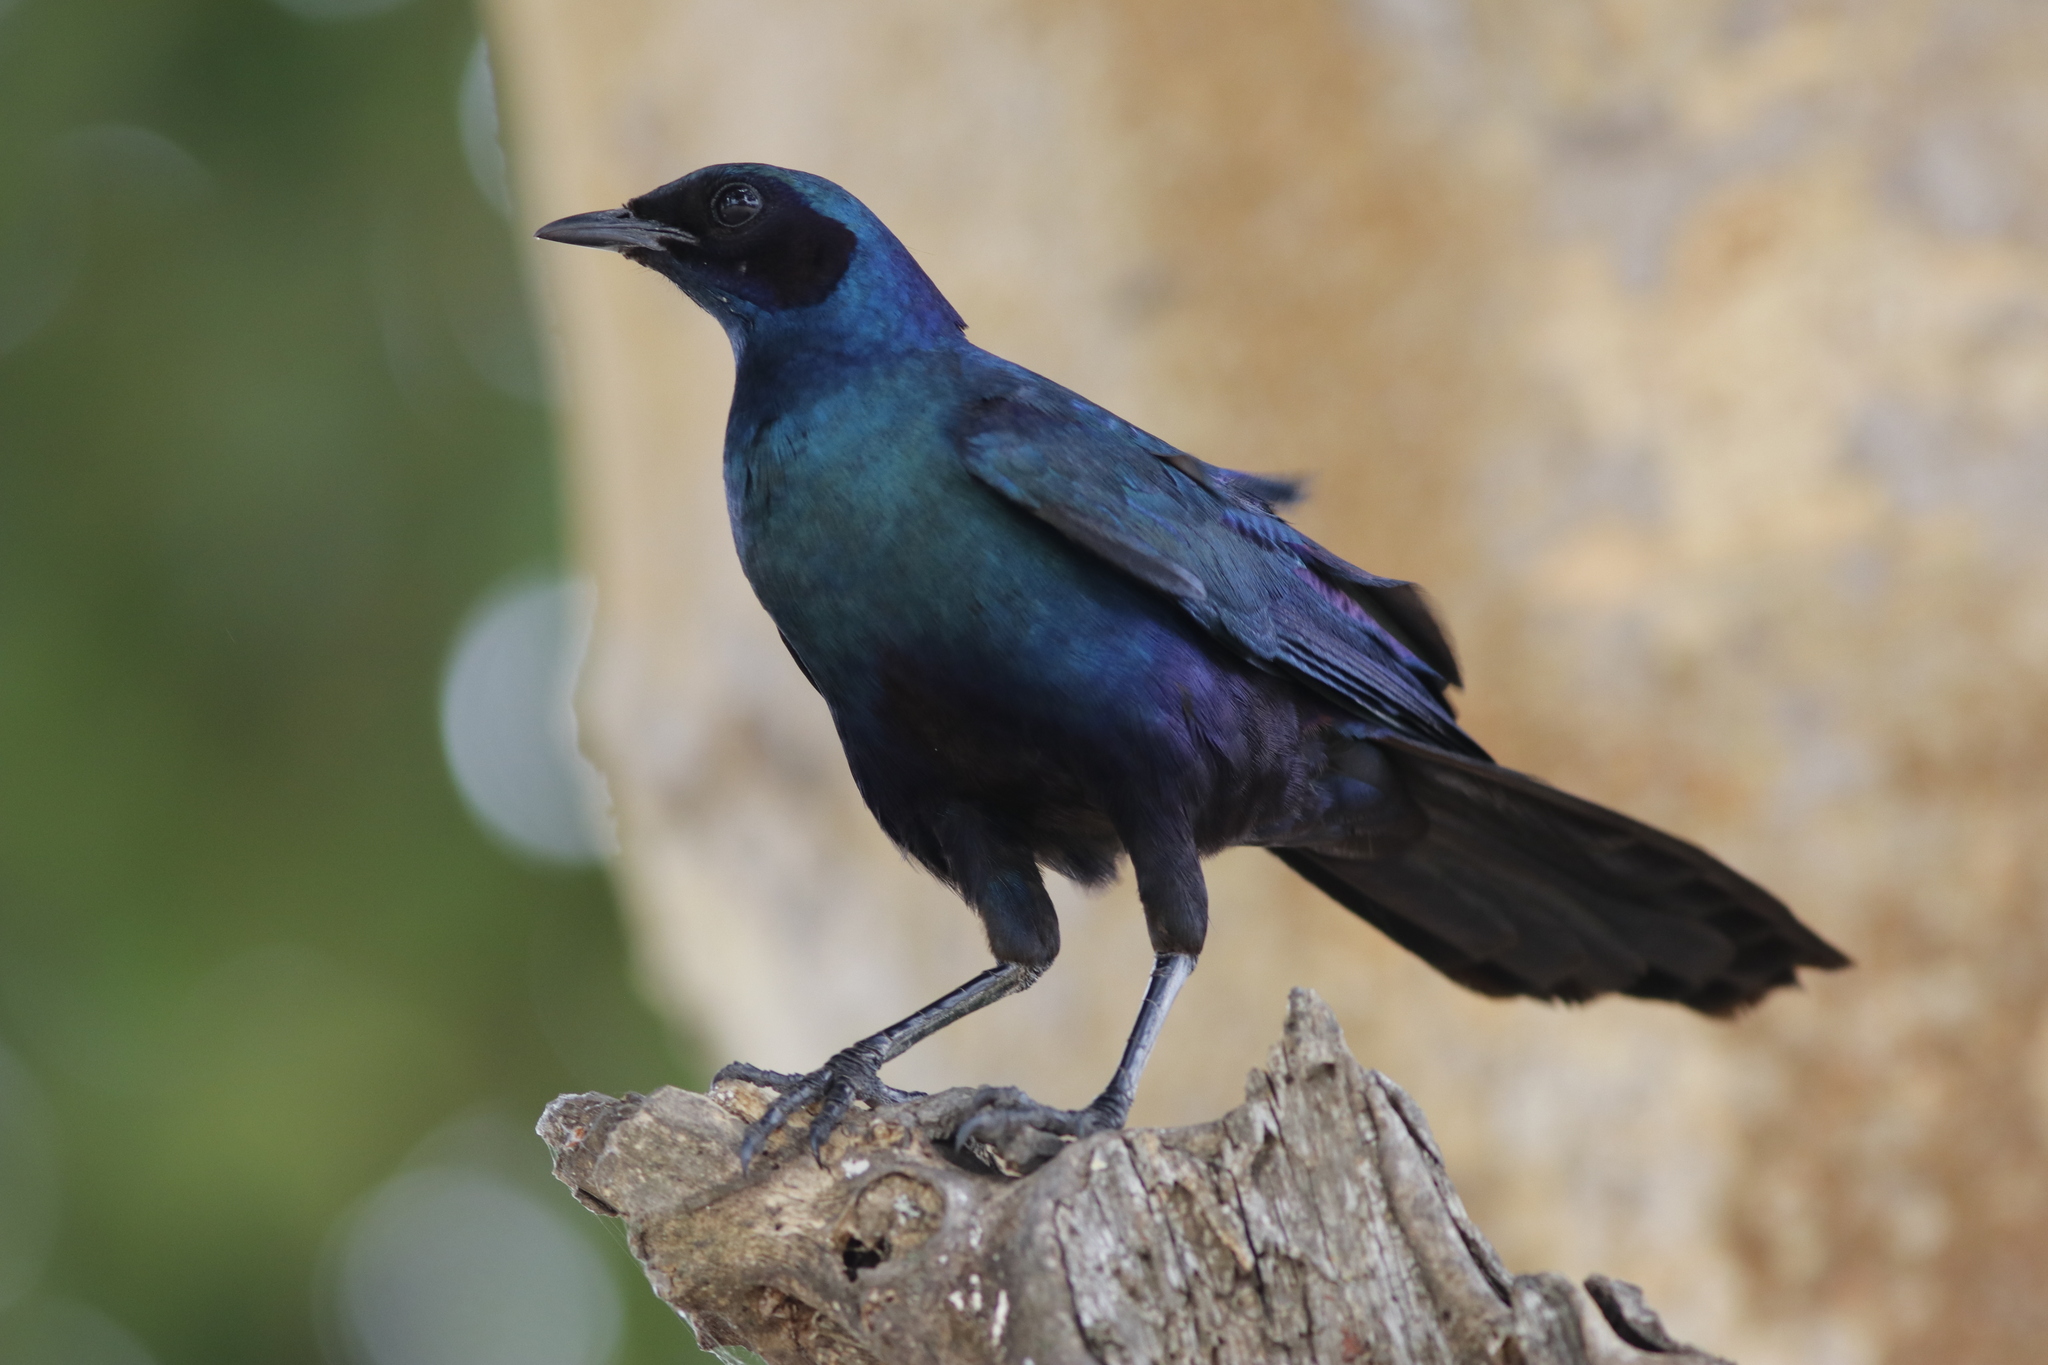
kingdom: Animalia
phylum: Chordata
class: Aves
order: Passeriformes
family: Sturnidae
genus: Lamprotornis
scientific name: Lamprotornis australis
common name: Burchell's starling
